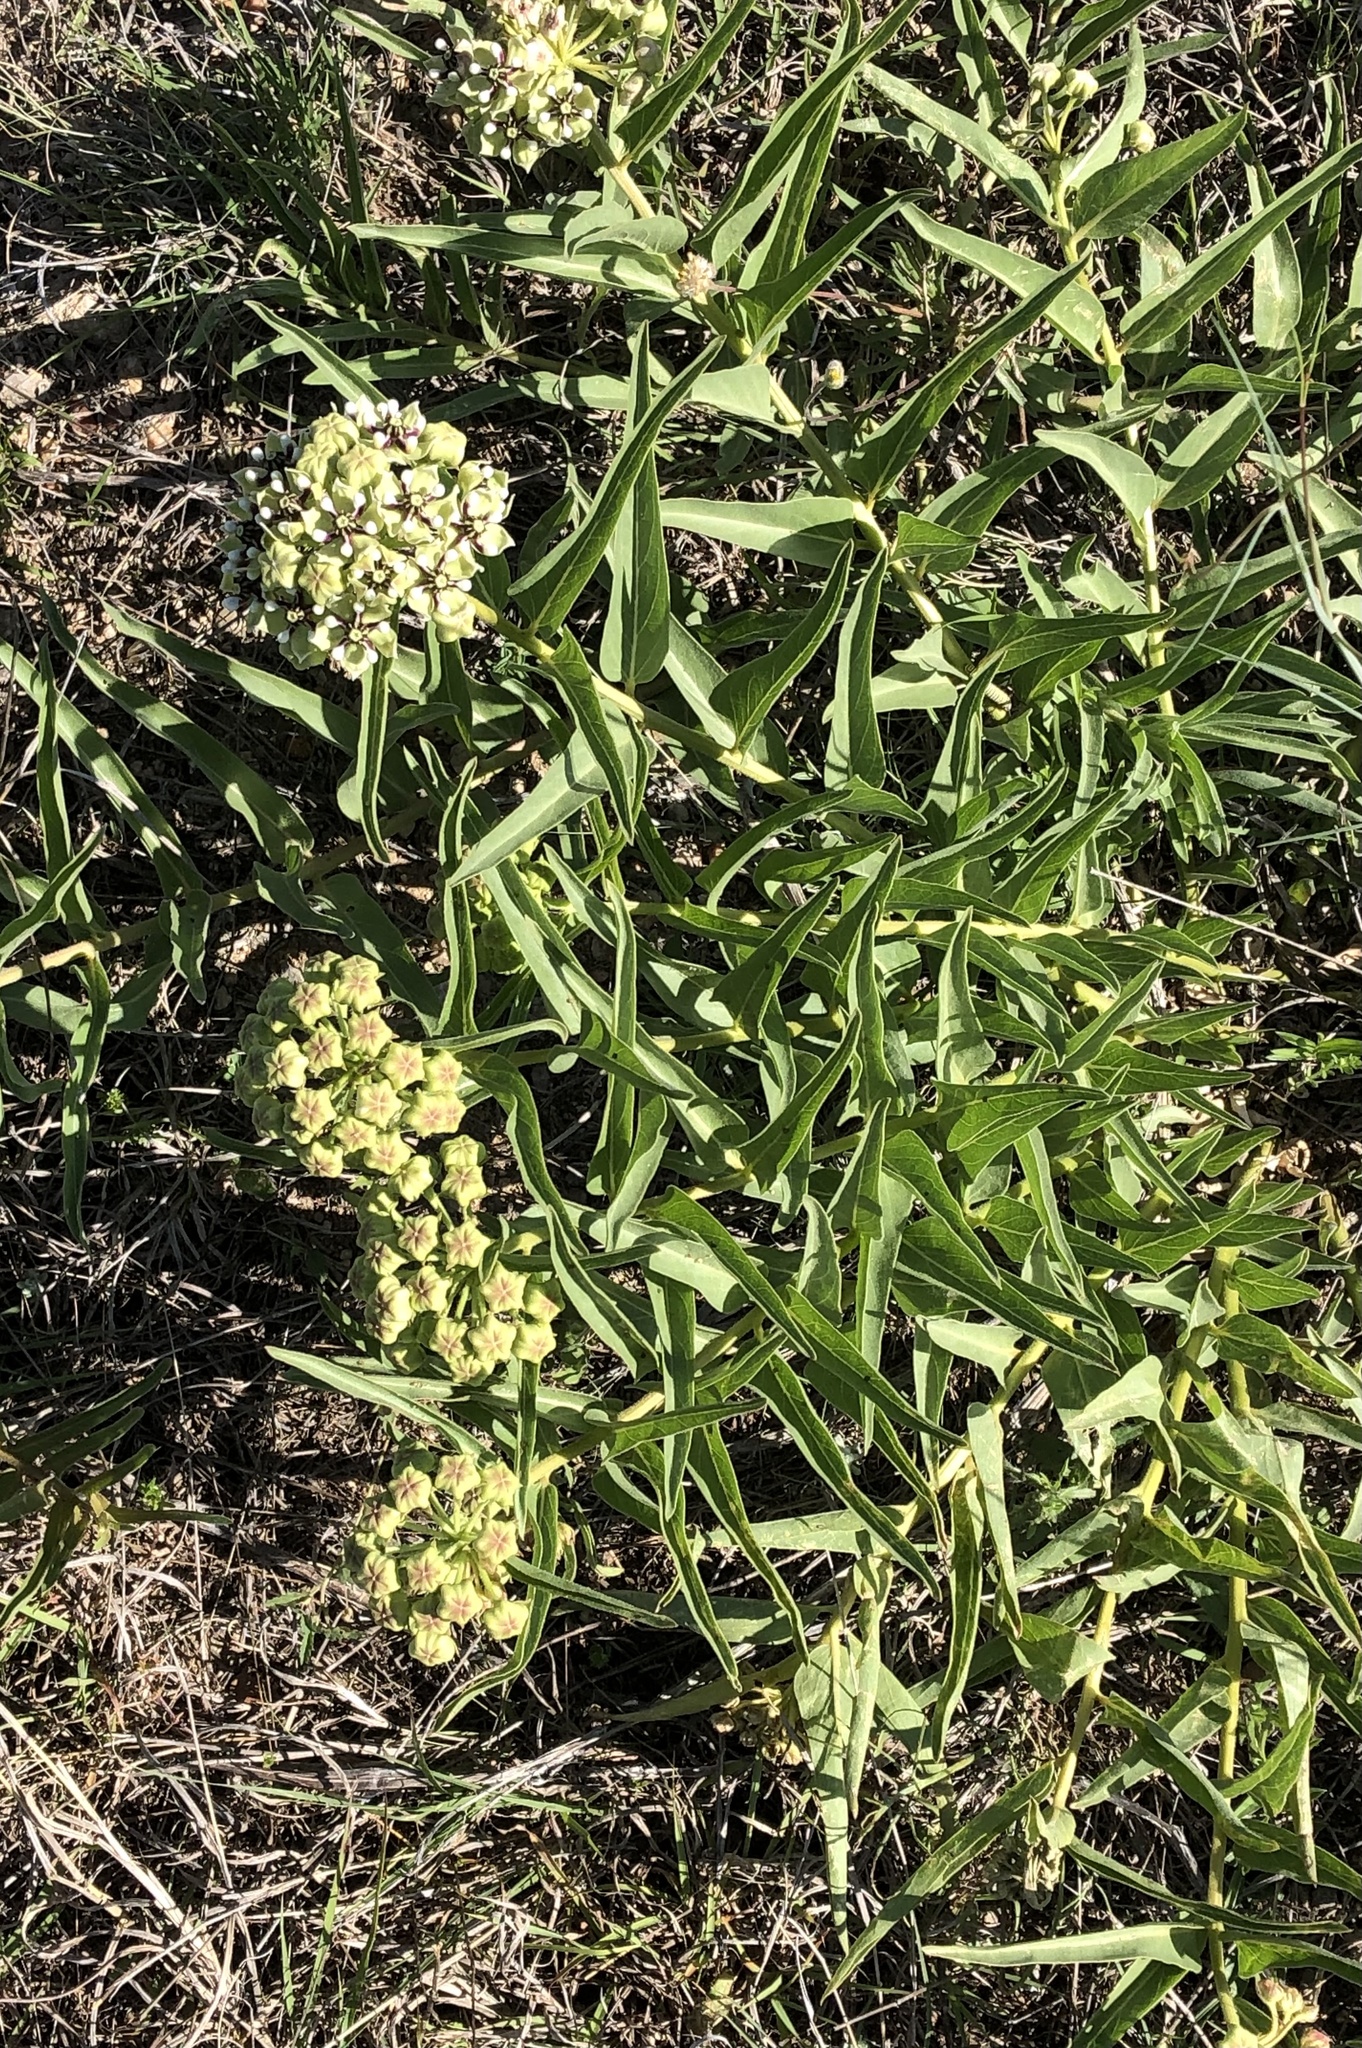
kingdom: Plantae
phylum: Tracheophyta
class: Magnoliopsida
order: Gentianales
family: Apocynaceae
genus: Asclepias
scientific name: Asclepias asperula
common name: Antelope horns
